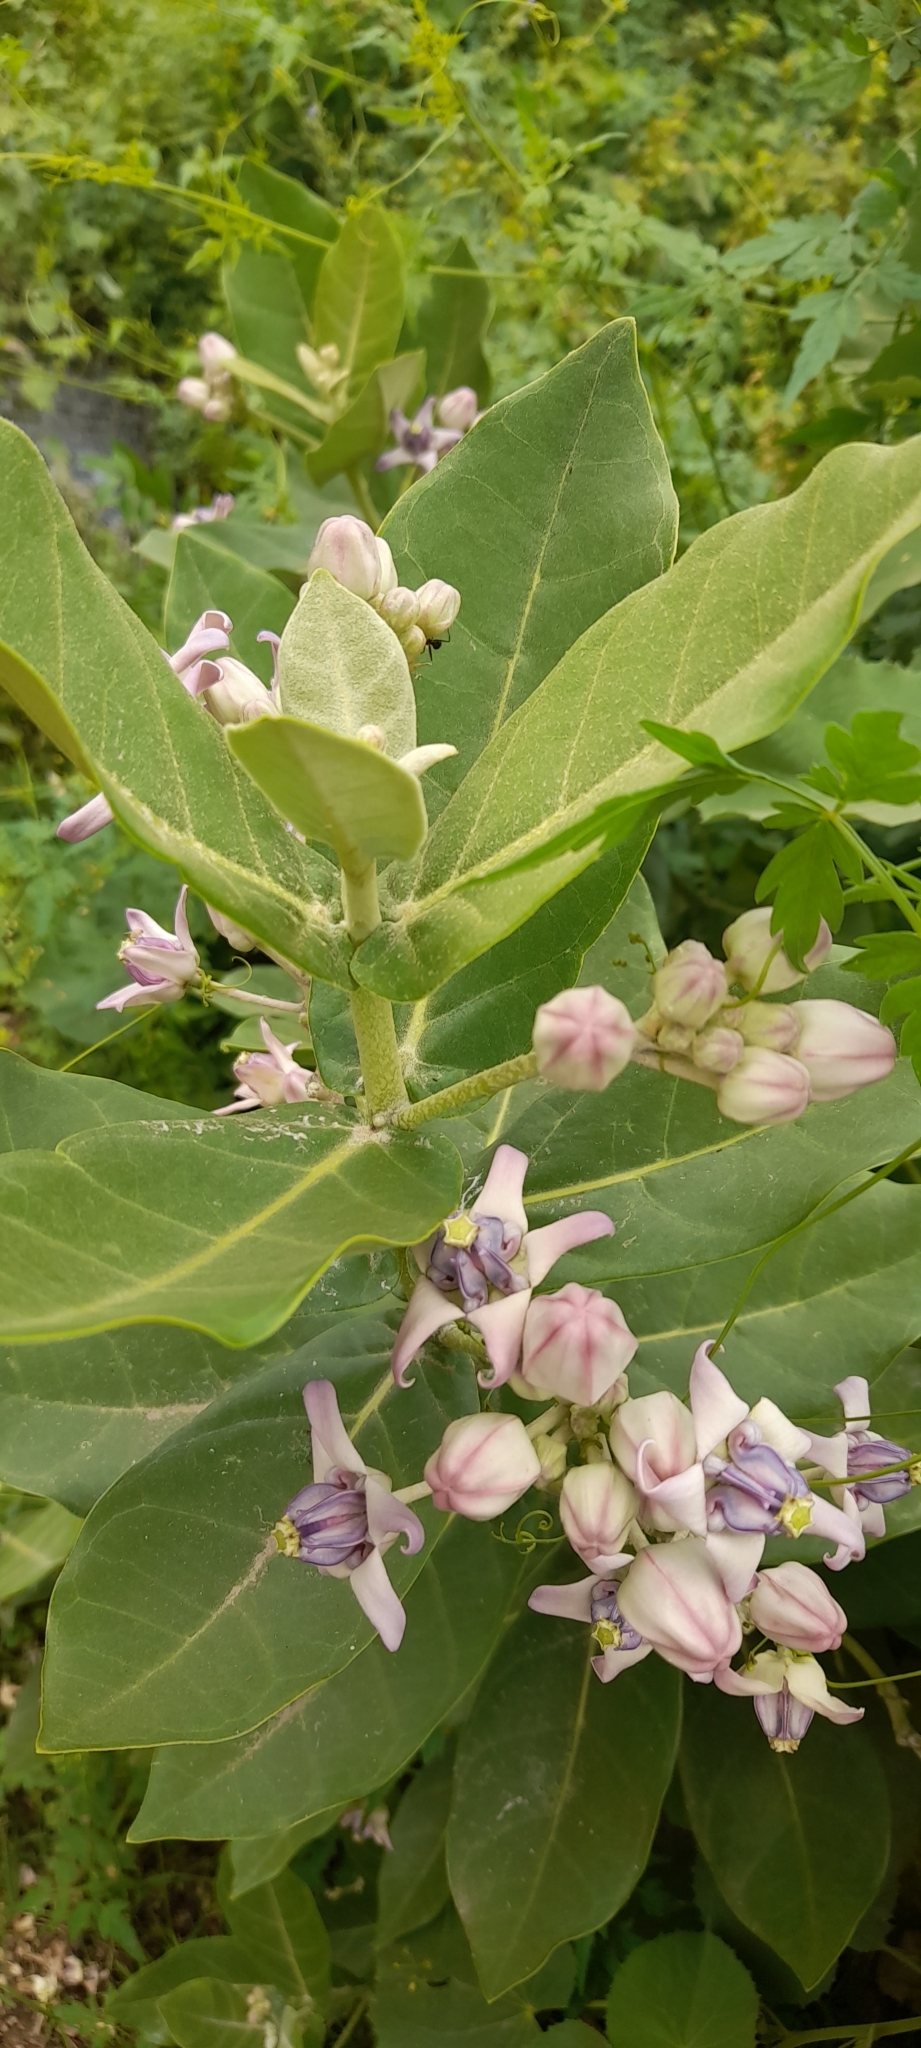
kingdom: Plantae
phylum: Tracheophyta
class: Magnoliopsida
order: Gentianales
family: Apocynaceae
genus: Calotropis
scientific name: Calotropis gigantea
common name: Crown flower
